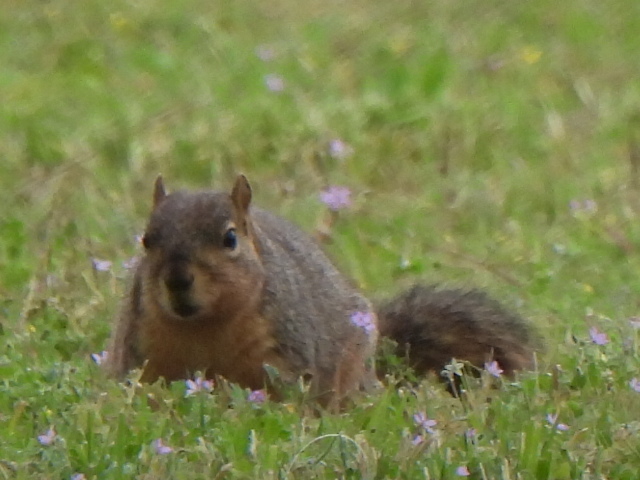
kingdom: Animalia
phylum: Chordata
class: Mammalia
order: Rodentia
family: Sciuridae
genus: Sciurus
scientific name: Sciurus niger
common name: Fox squirrel
